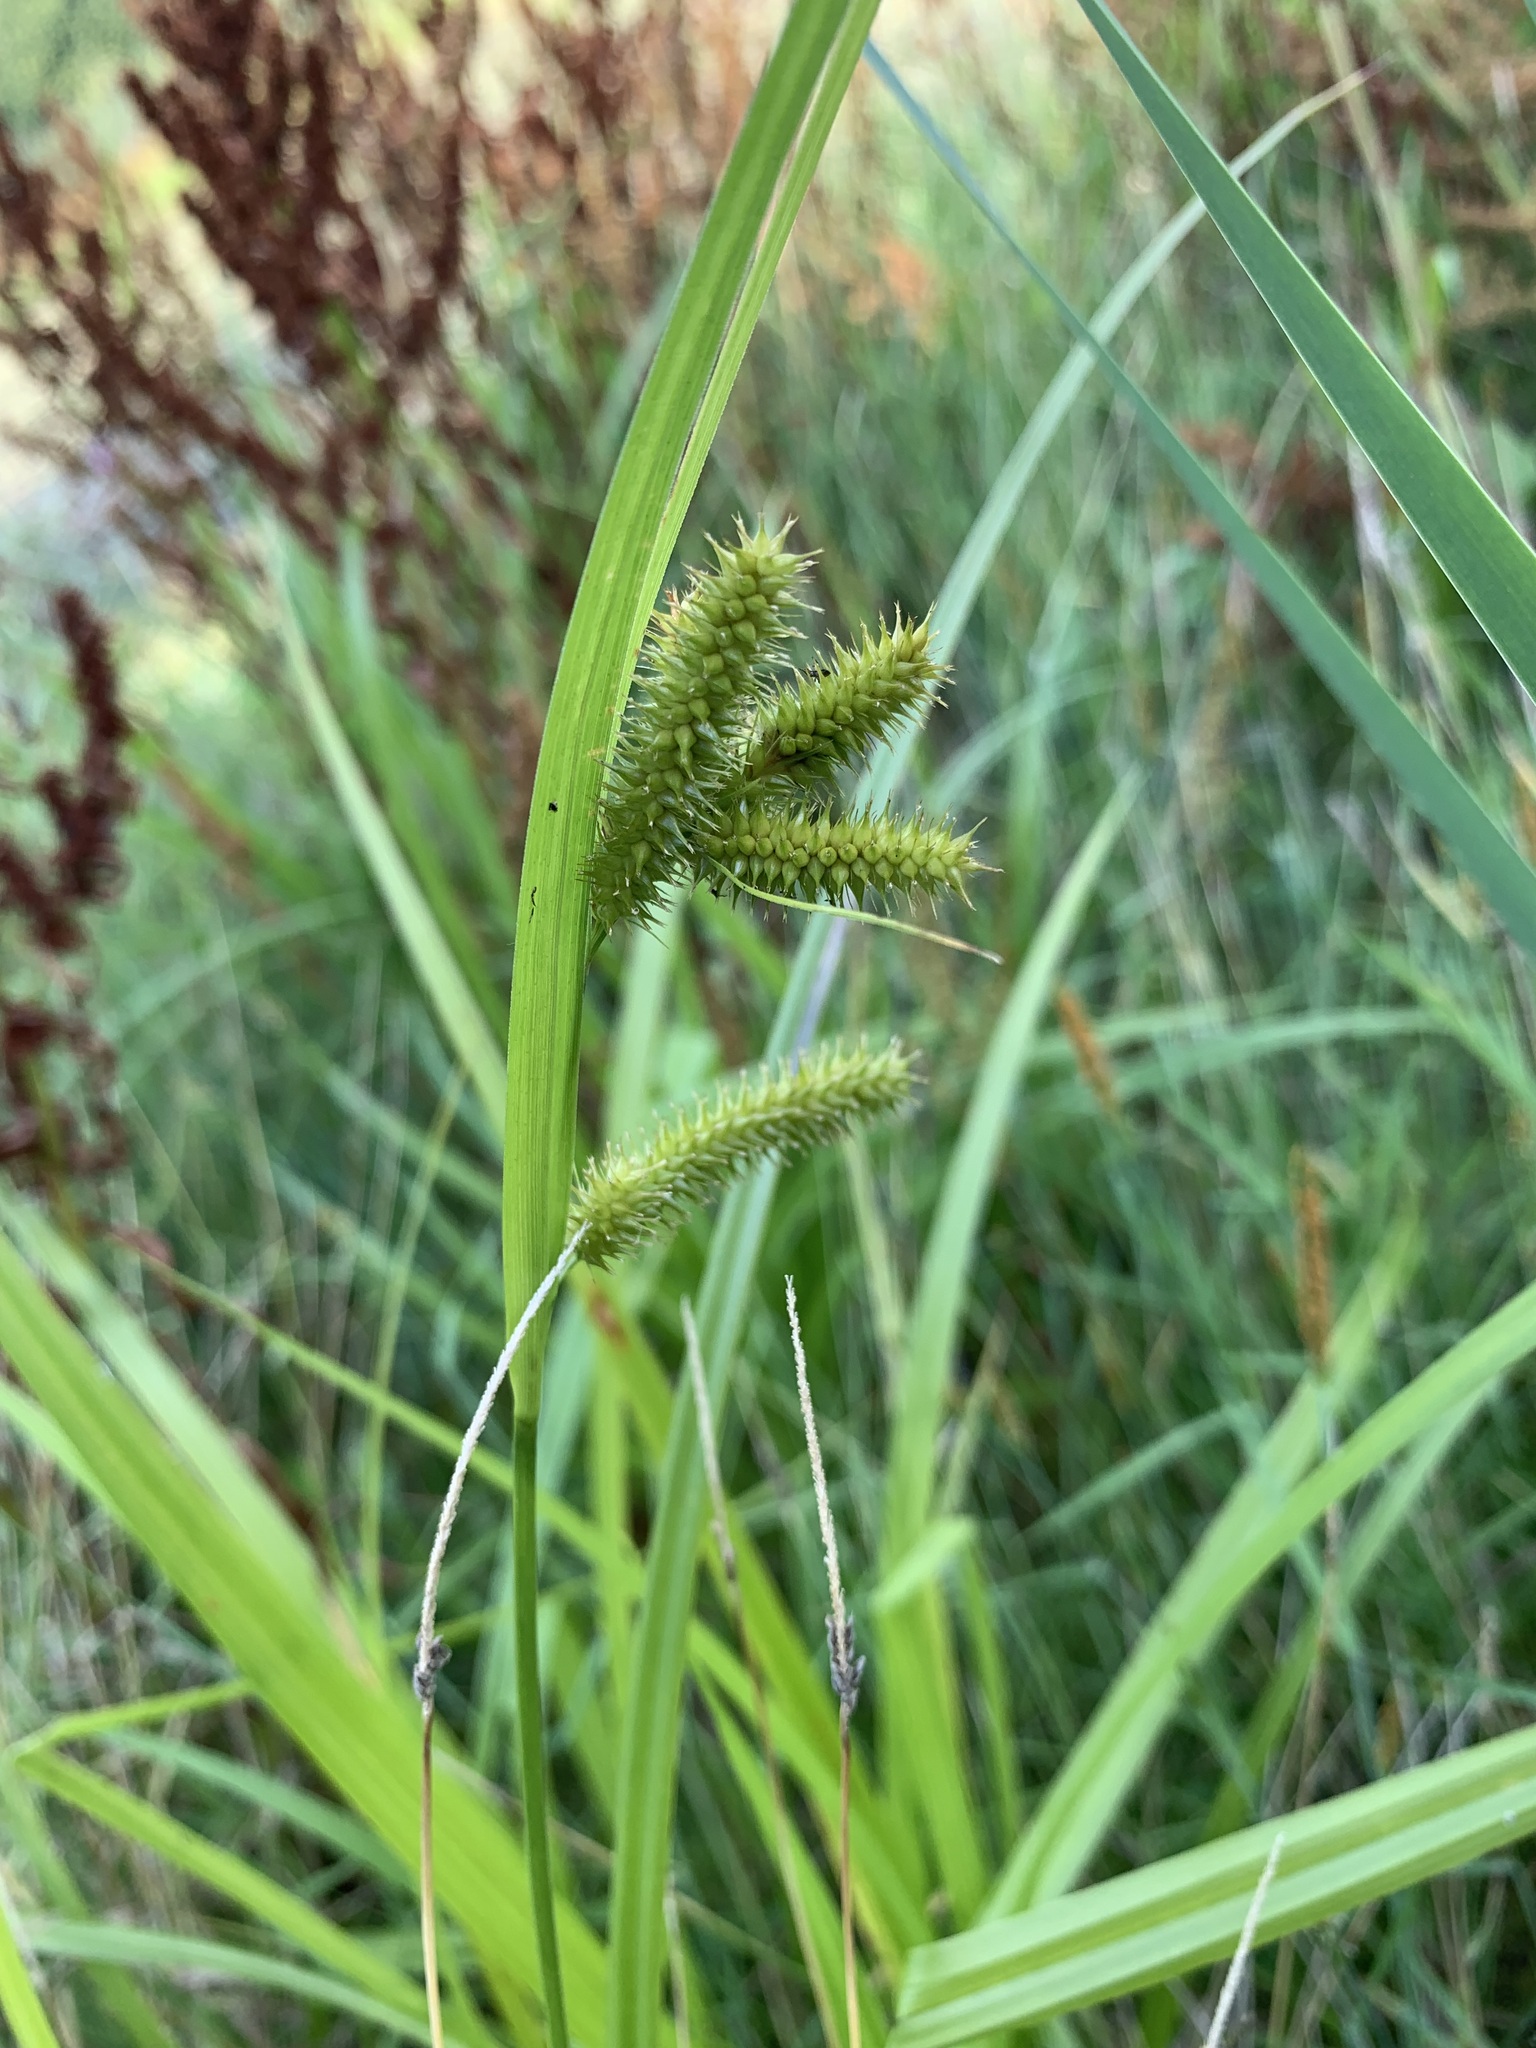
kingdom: Plantae
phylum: Tracheophyta
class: Liliopsida
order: Poales
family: Cyperaceae
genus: Carex
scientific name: Carex pseudocyperus
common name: Cyperus sedge
